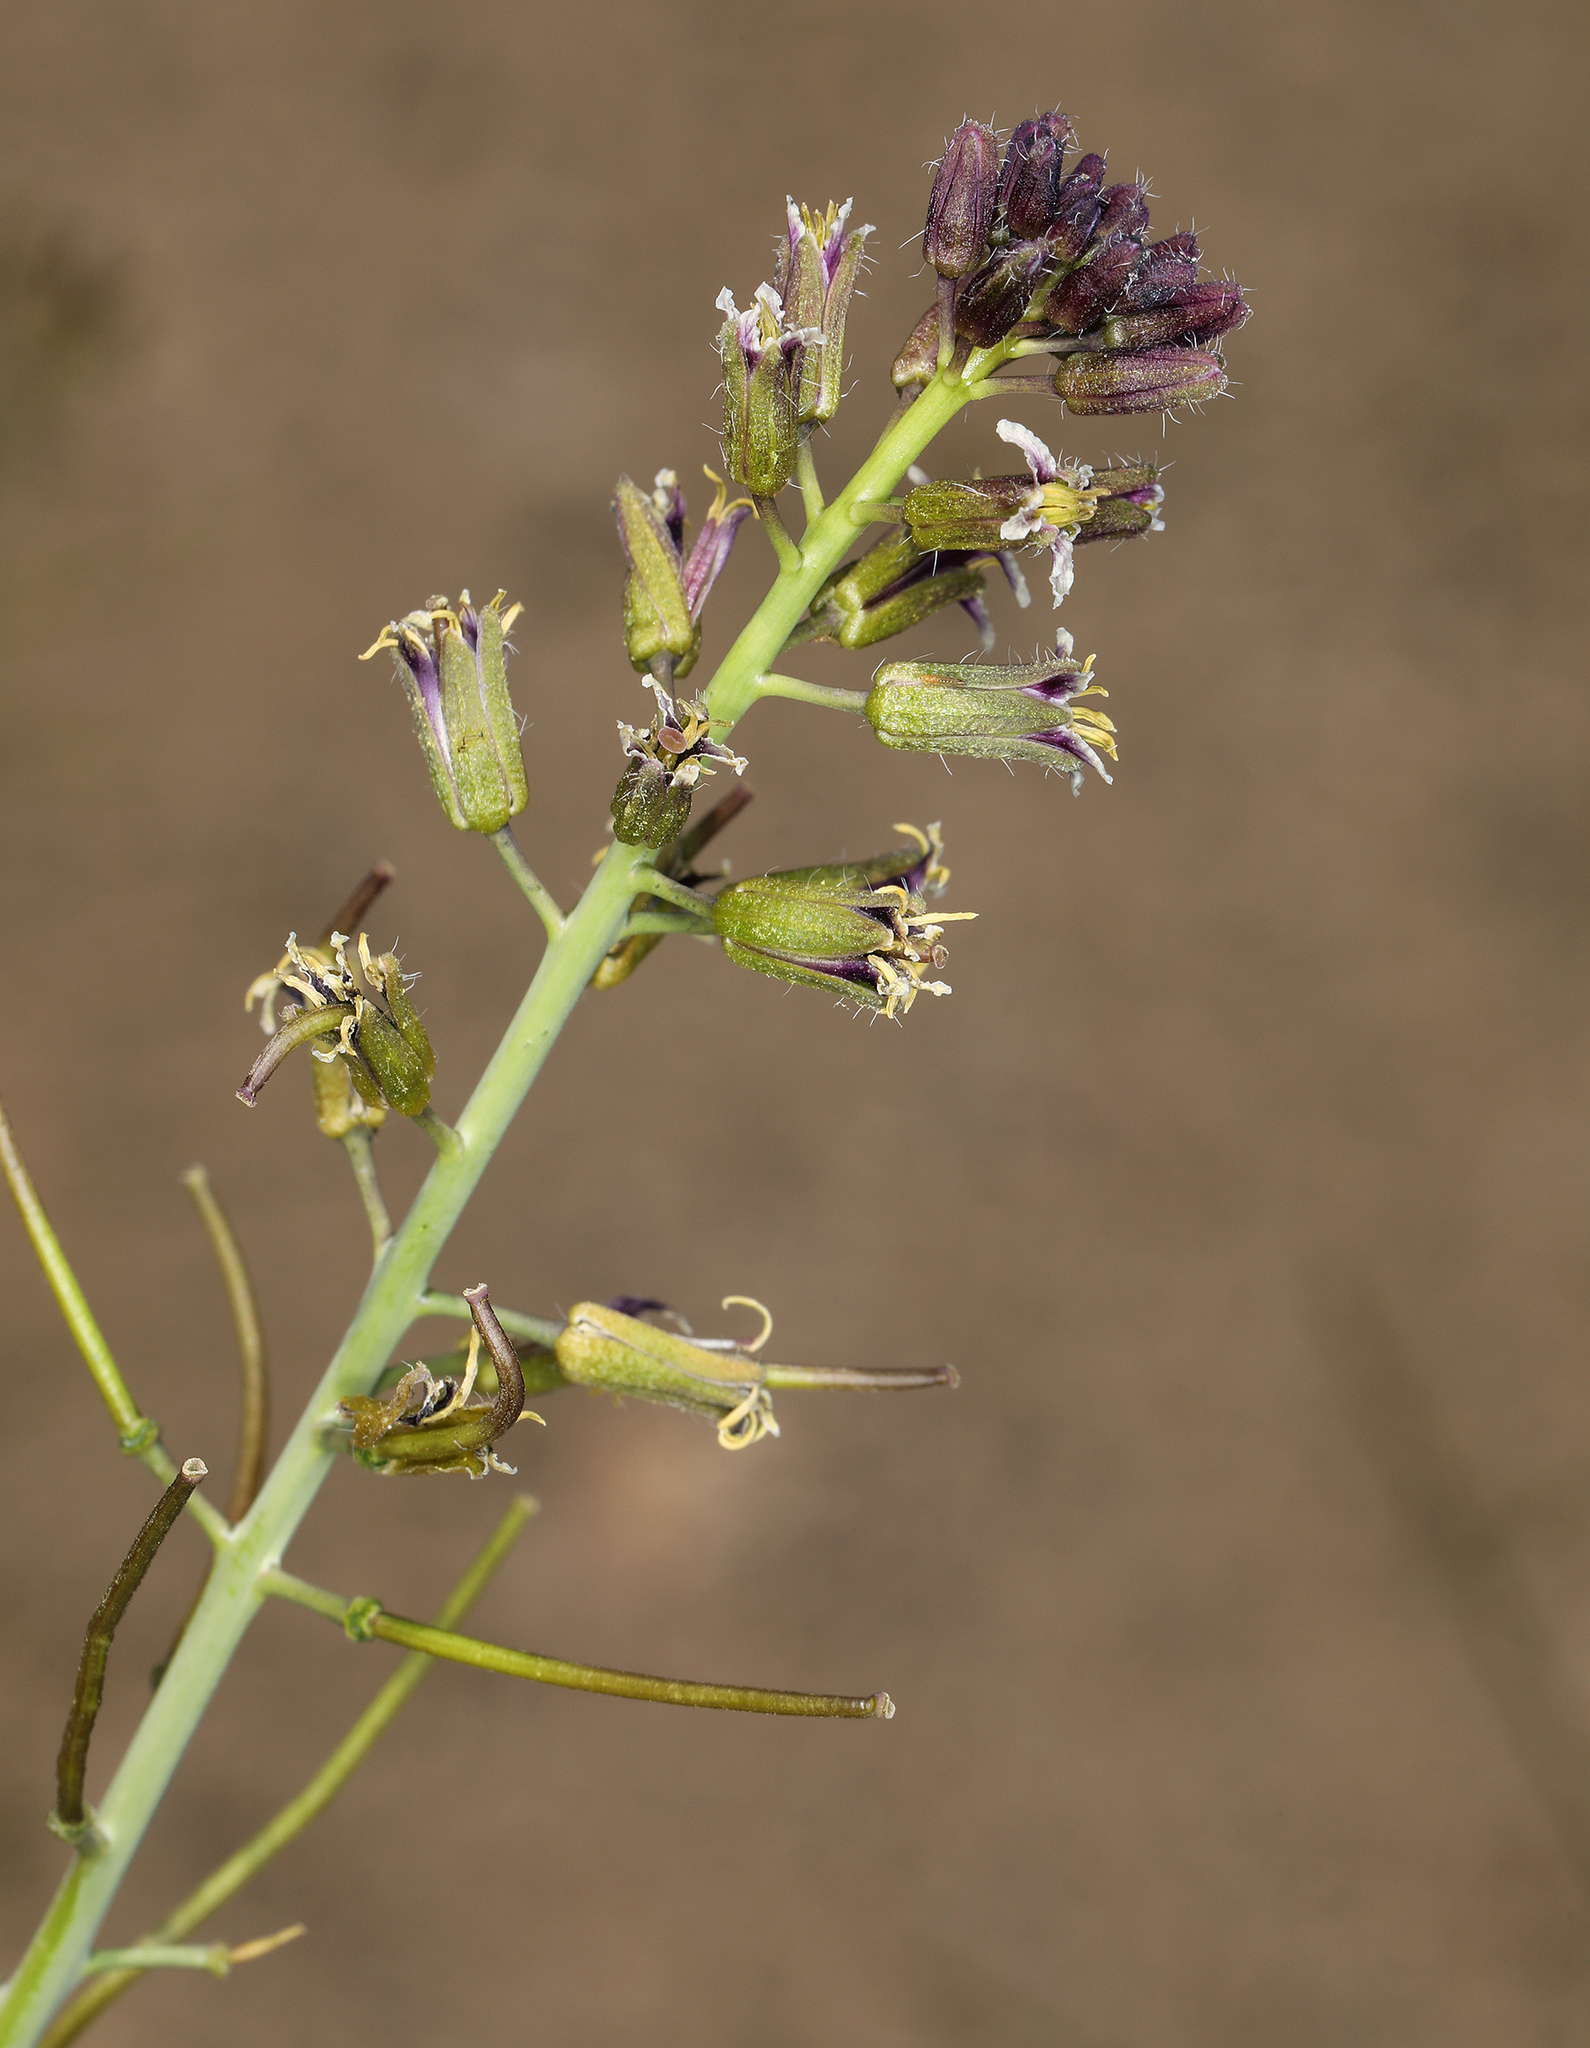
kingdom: Plantae
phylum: Tracheophyta
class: Magnoliopsida
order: Brassicales
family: Brassicaceae
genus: Streptanthus
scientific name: Streptanthus pilosus
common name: Chocolate drops
